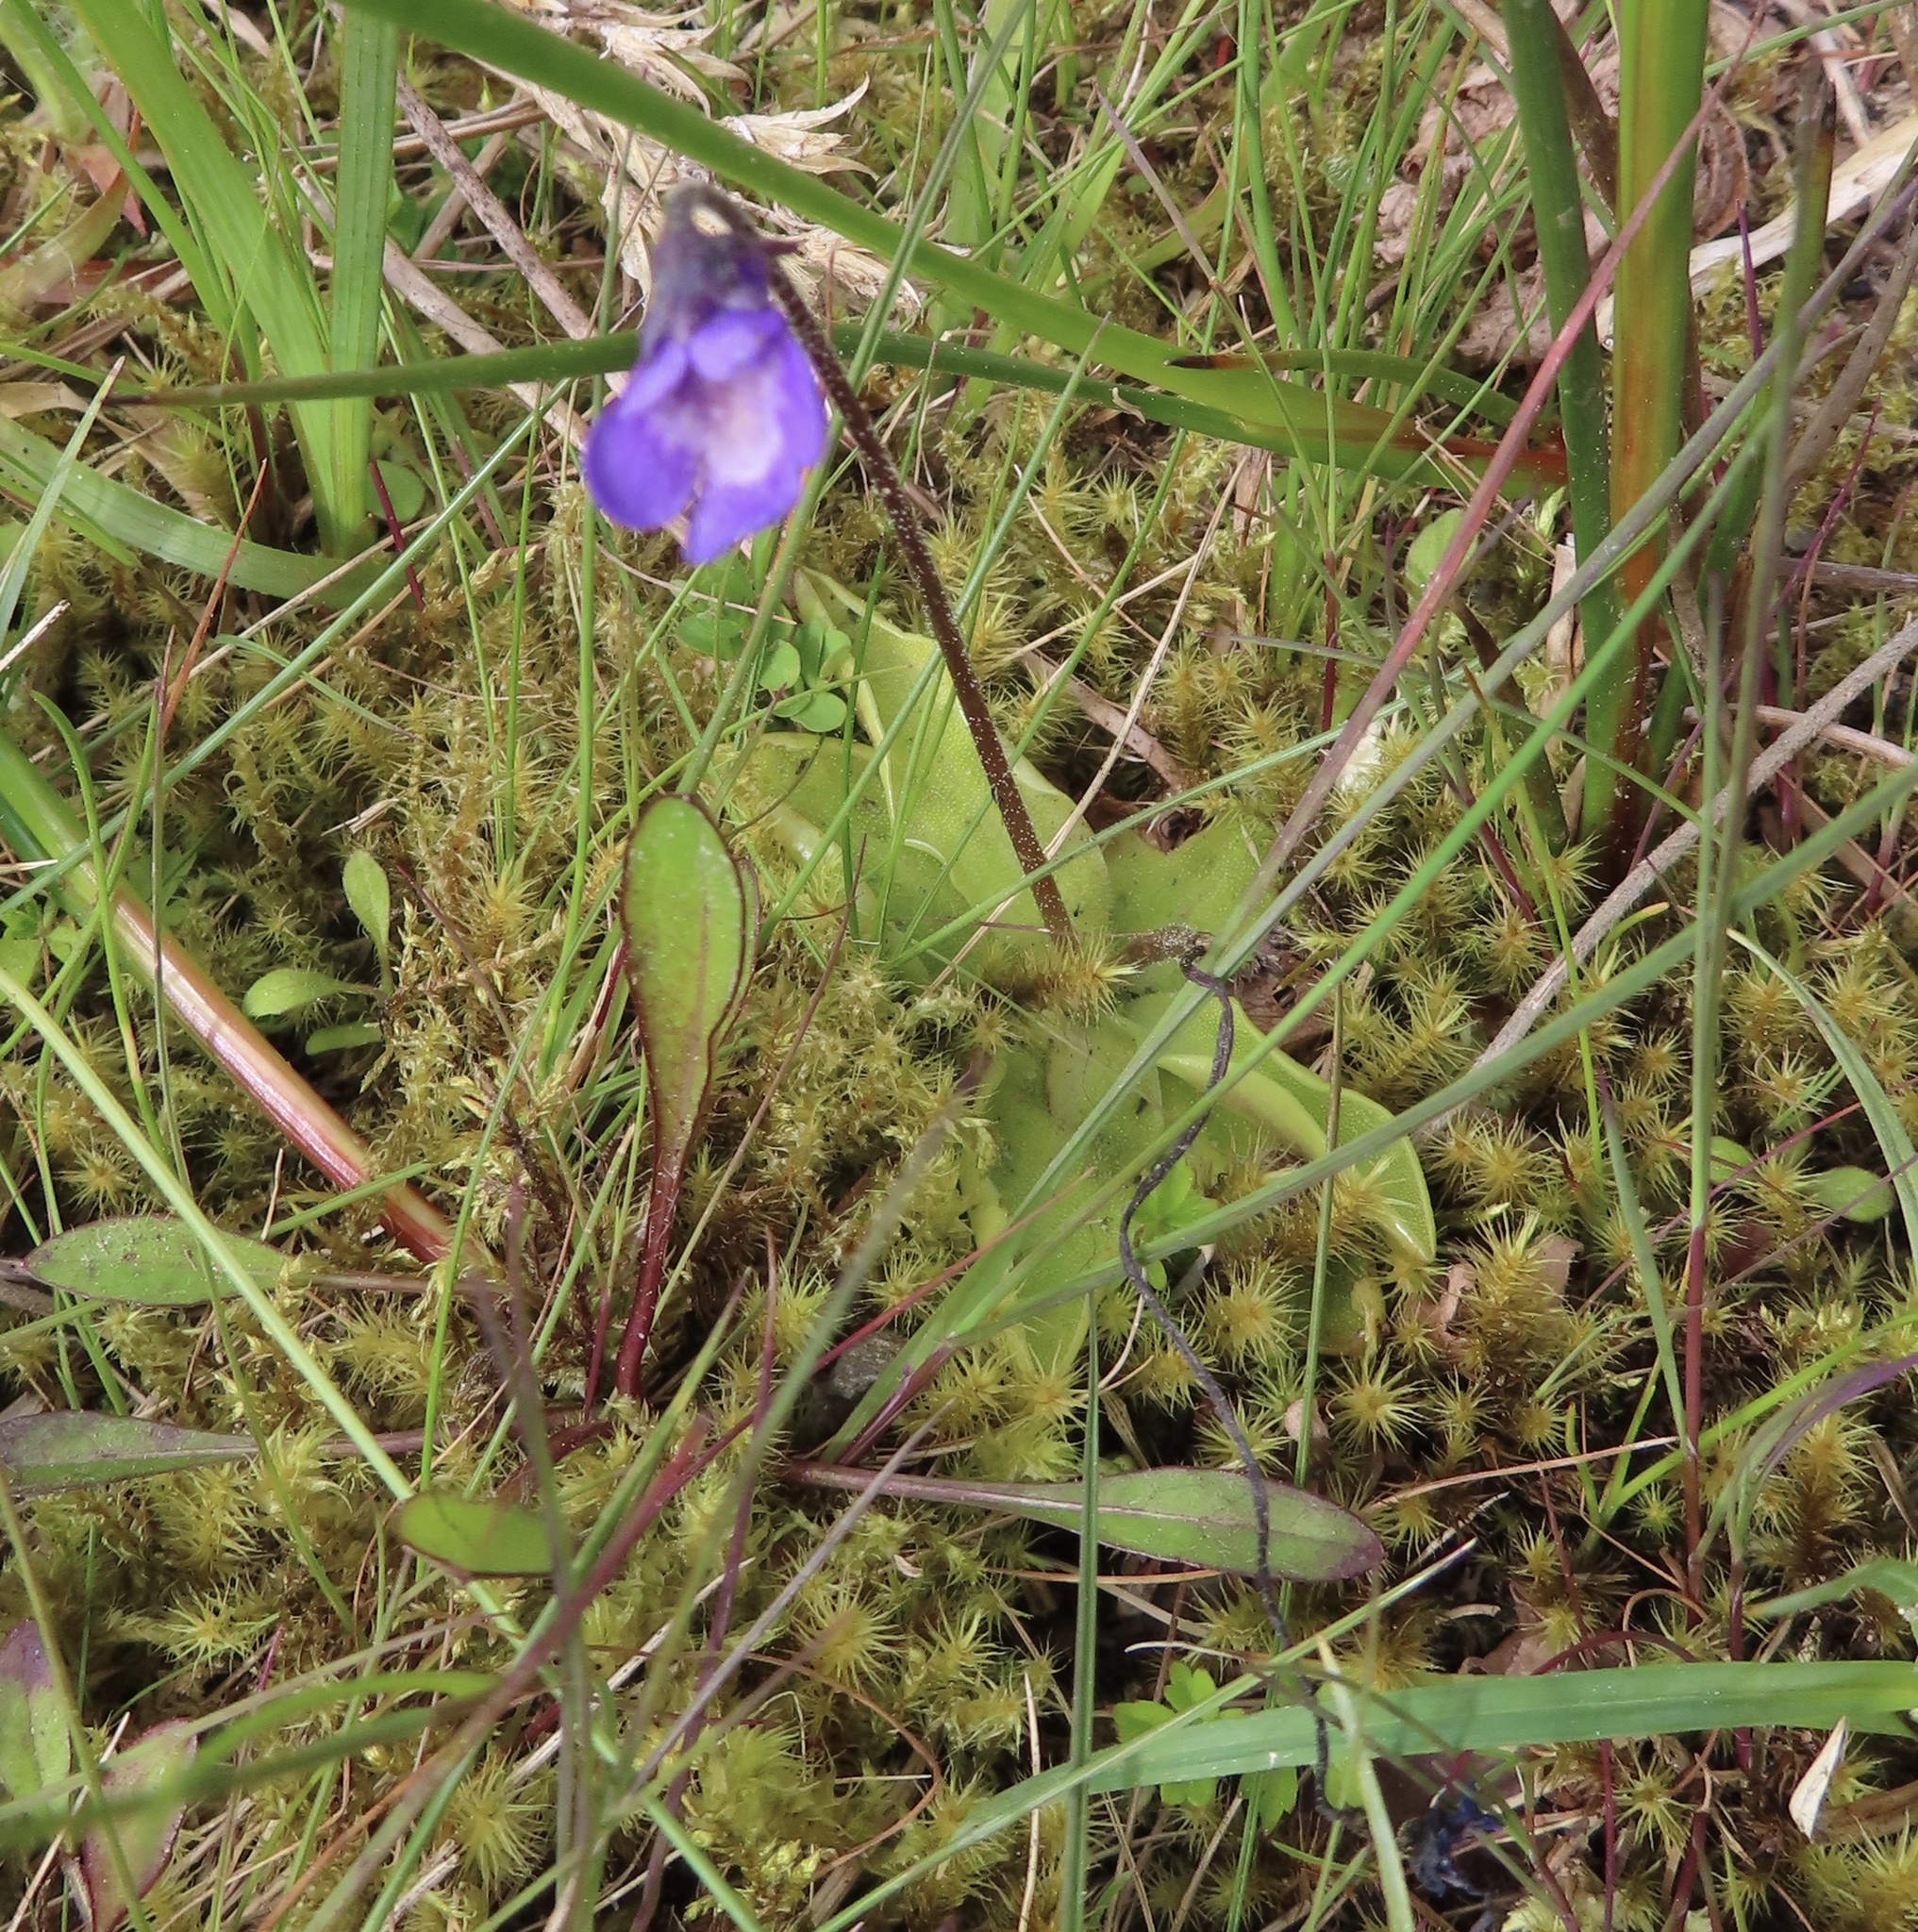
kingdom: Plantae
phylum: Tracheophyta
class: Magnoliopsida
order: Lamiales
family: Lentibulariaceae
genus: Pinguicula
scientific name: Pinguicula vulgaris
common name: Common butterwort
